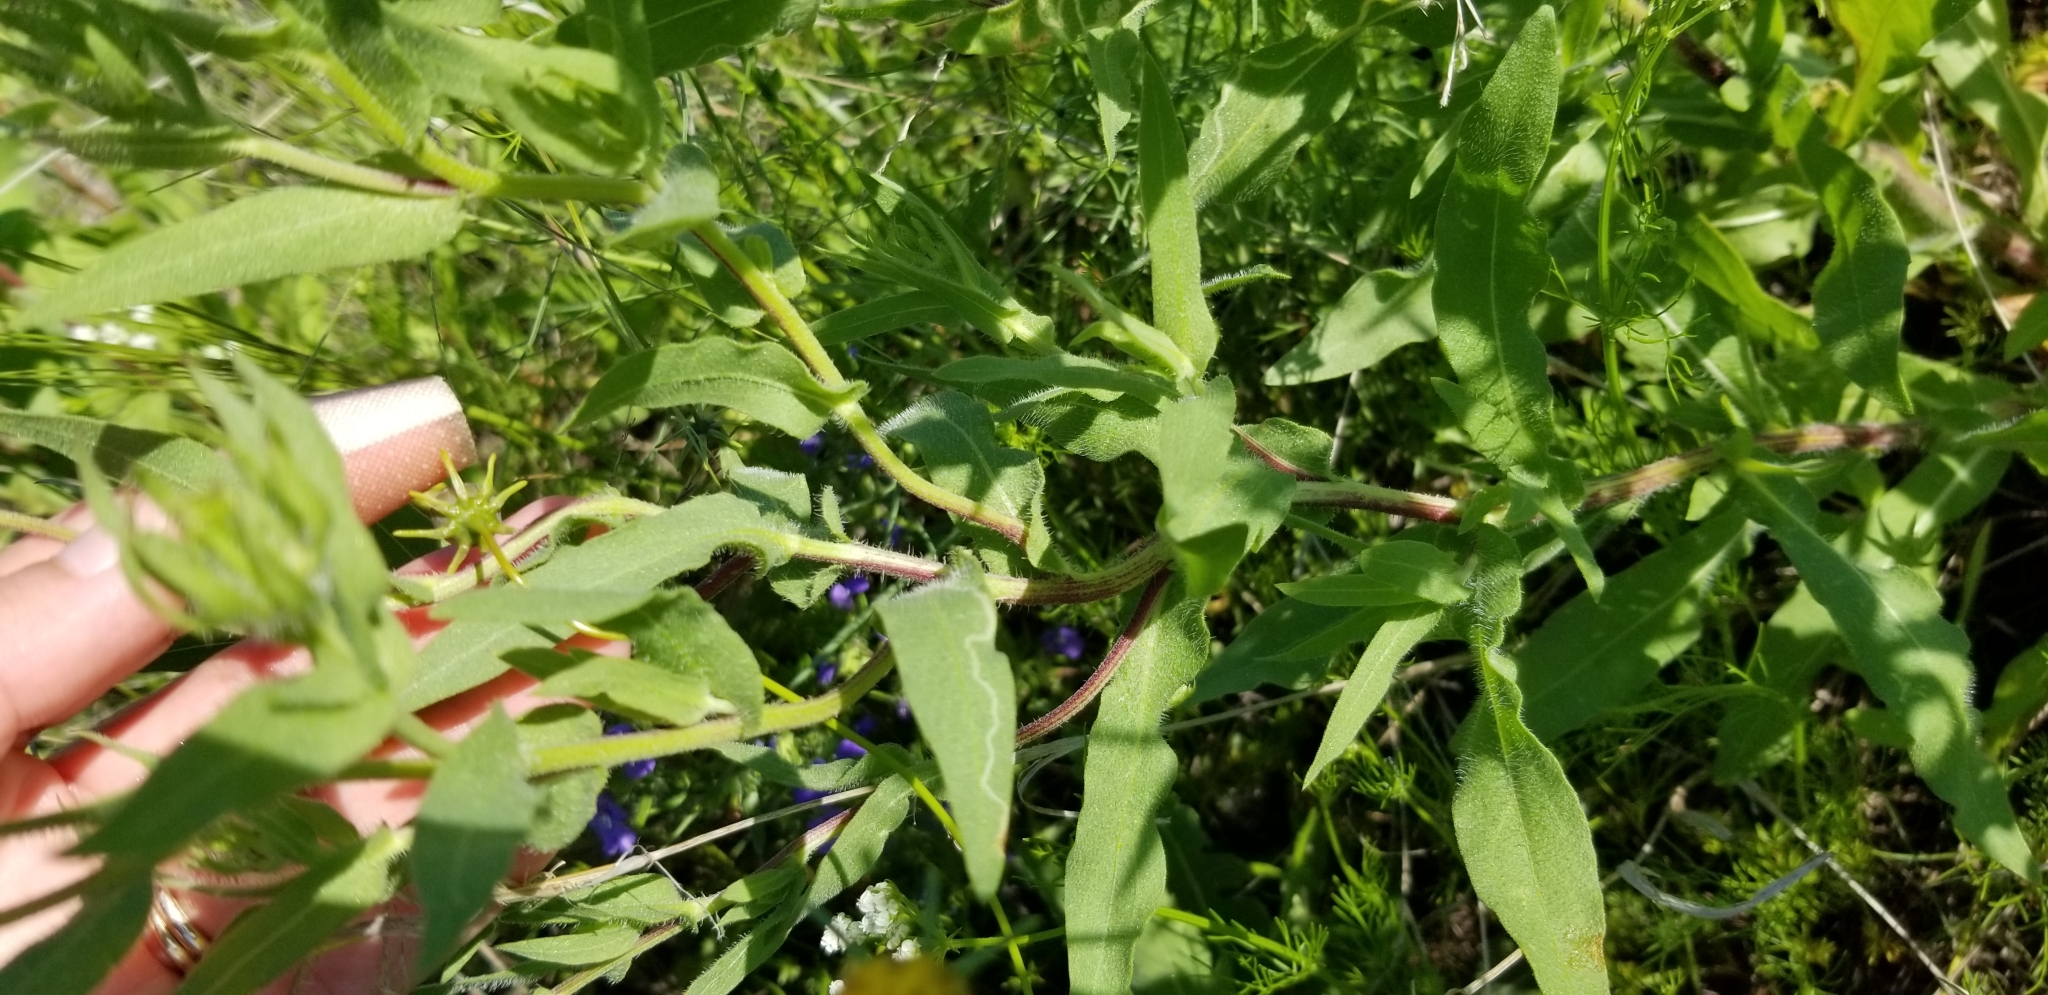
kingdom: Plantae
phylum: Tracheophyta
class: Magnoliopsida
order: Asterales
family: Asteraceae
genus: Gaillardia
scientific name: Gaillardia pulchella
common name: Firewheel
